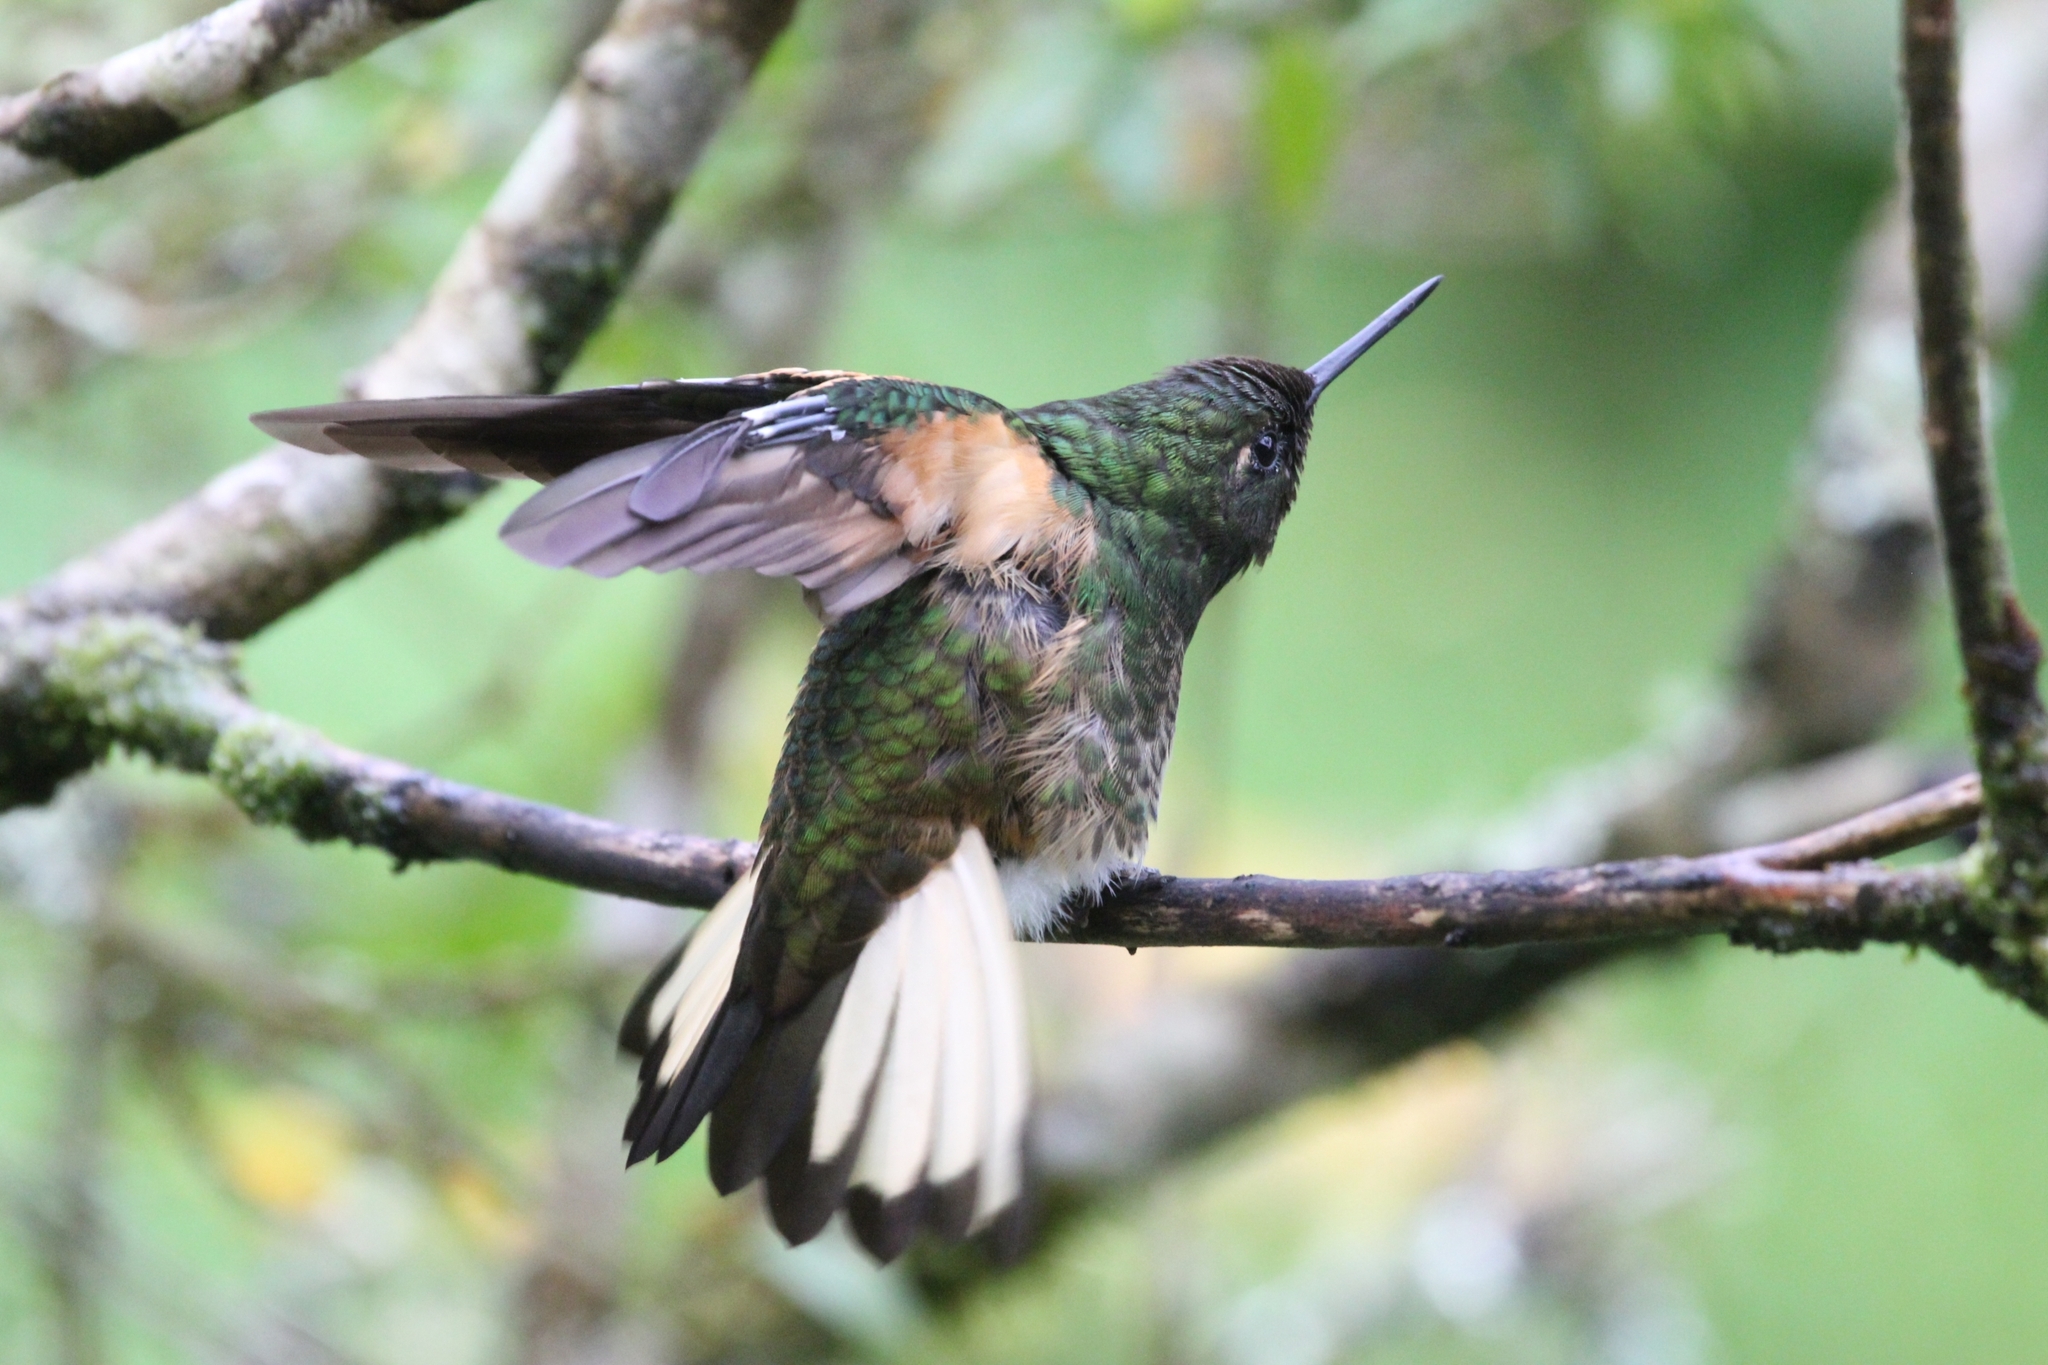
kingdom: Animalia
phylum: Chordata
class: Aves
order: Apodiformes
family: Trochilidae
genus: Boissonneaua
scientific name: Boissonneaua flavescens
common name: Buff-tailed coronet
